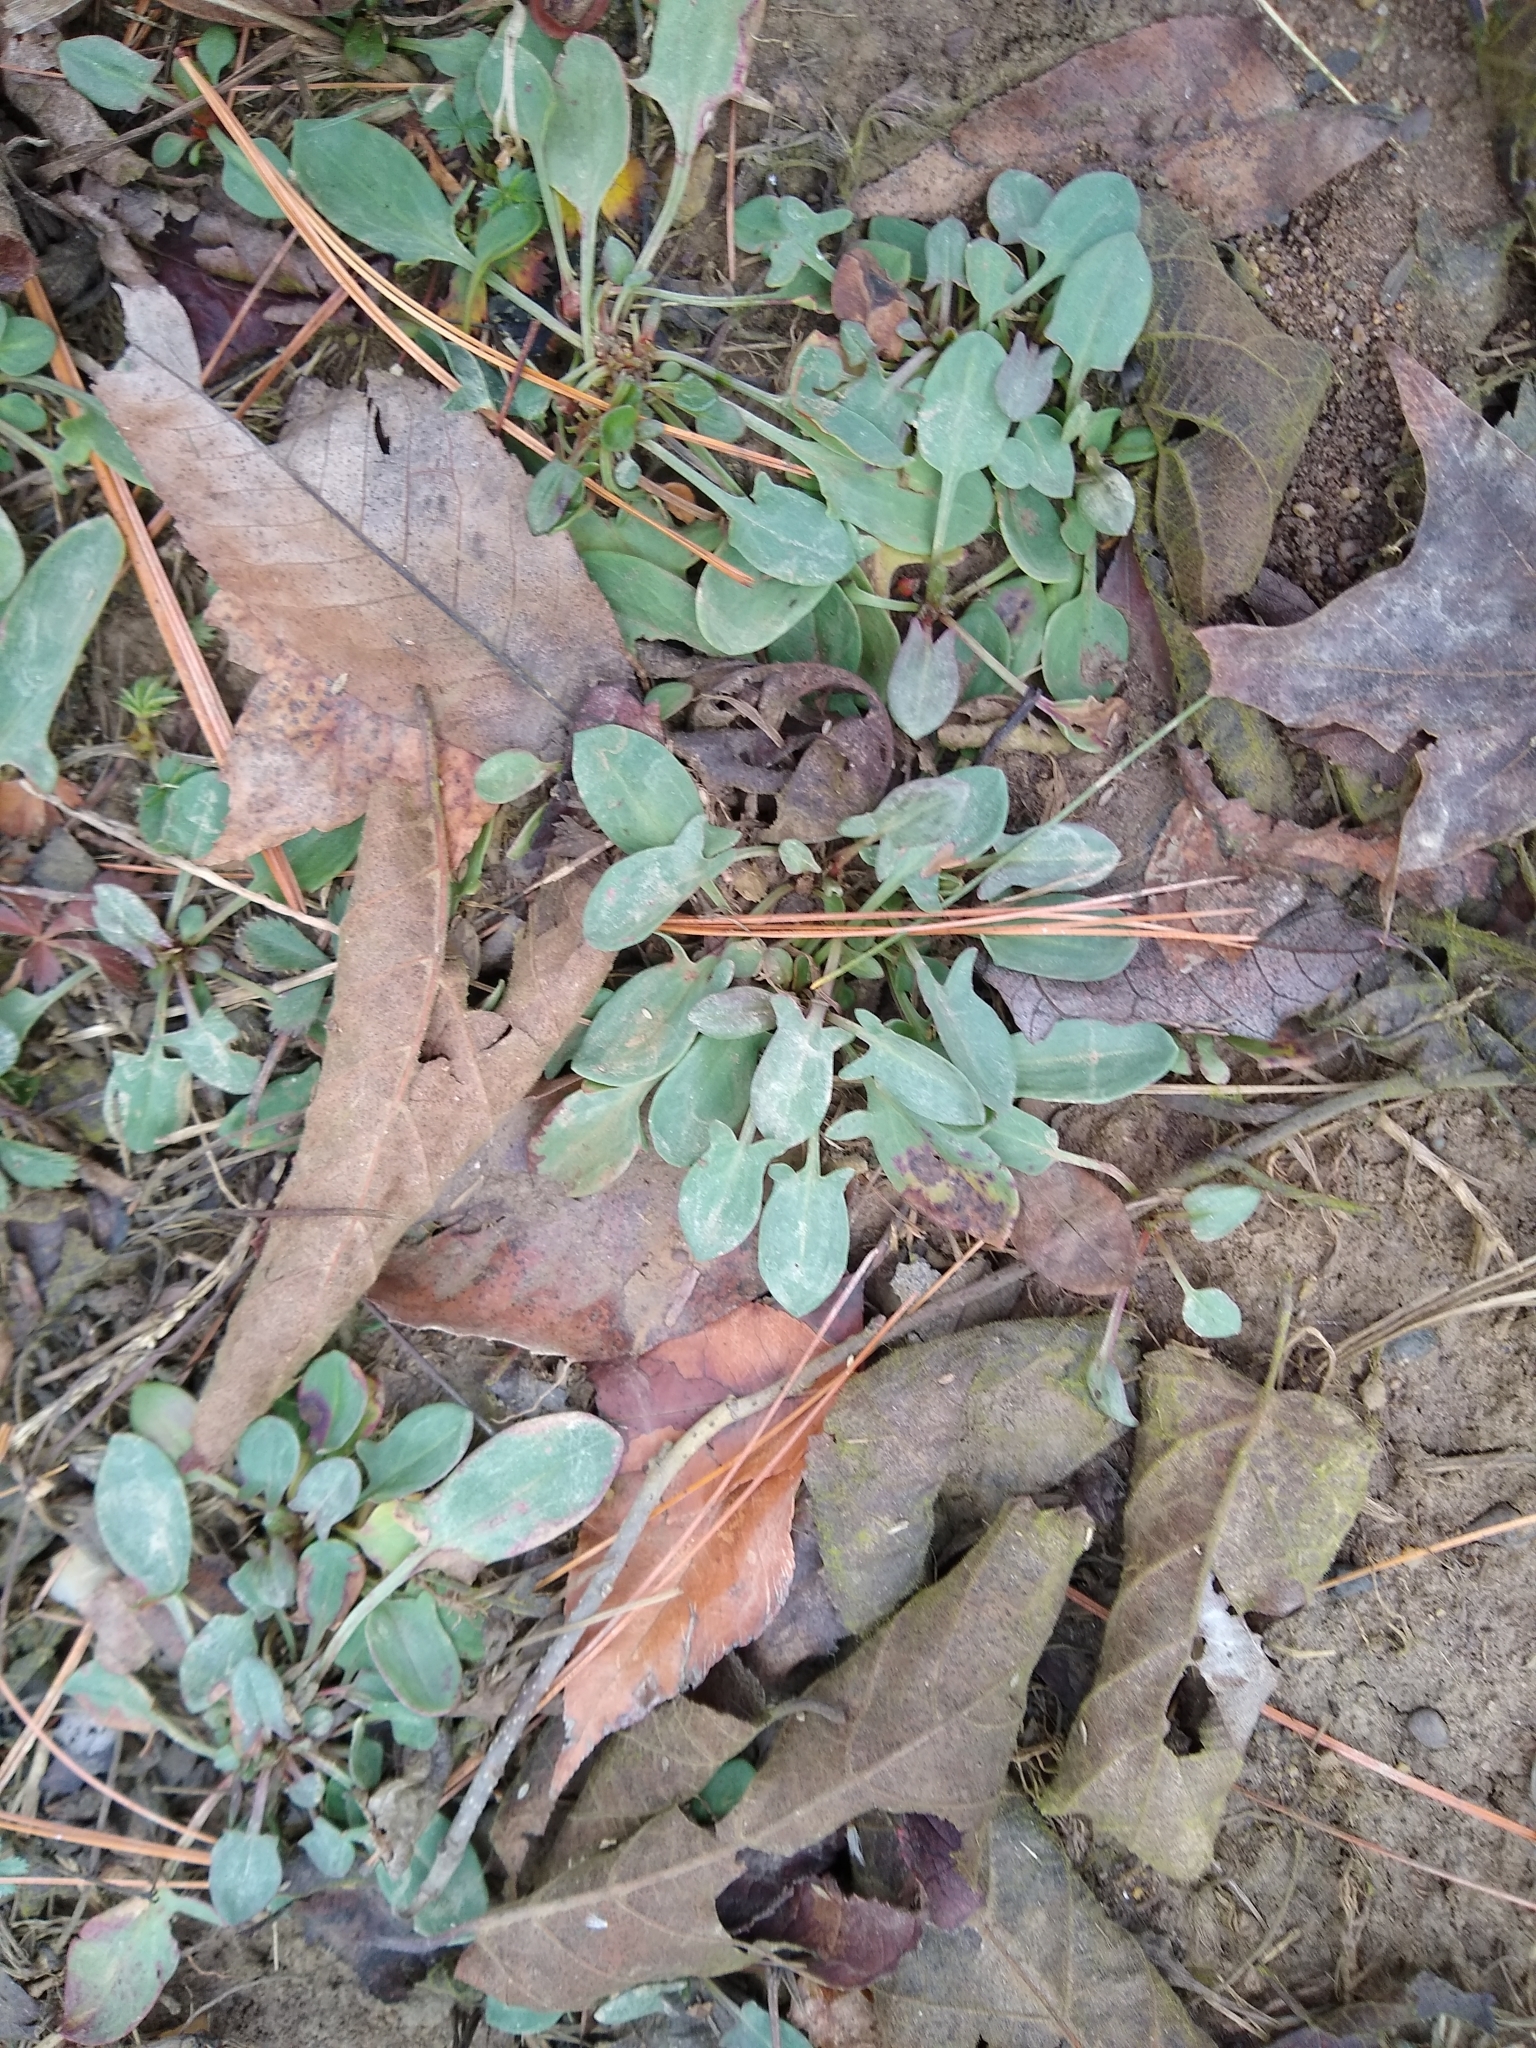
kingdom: Plantae
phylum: Tracheophyta
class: Magnoliopsida
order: Caryophyllales
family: Polygonaceae
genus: Rumex
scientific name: Rumex acetosella
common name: Common sheep sorrel
